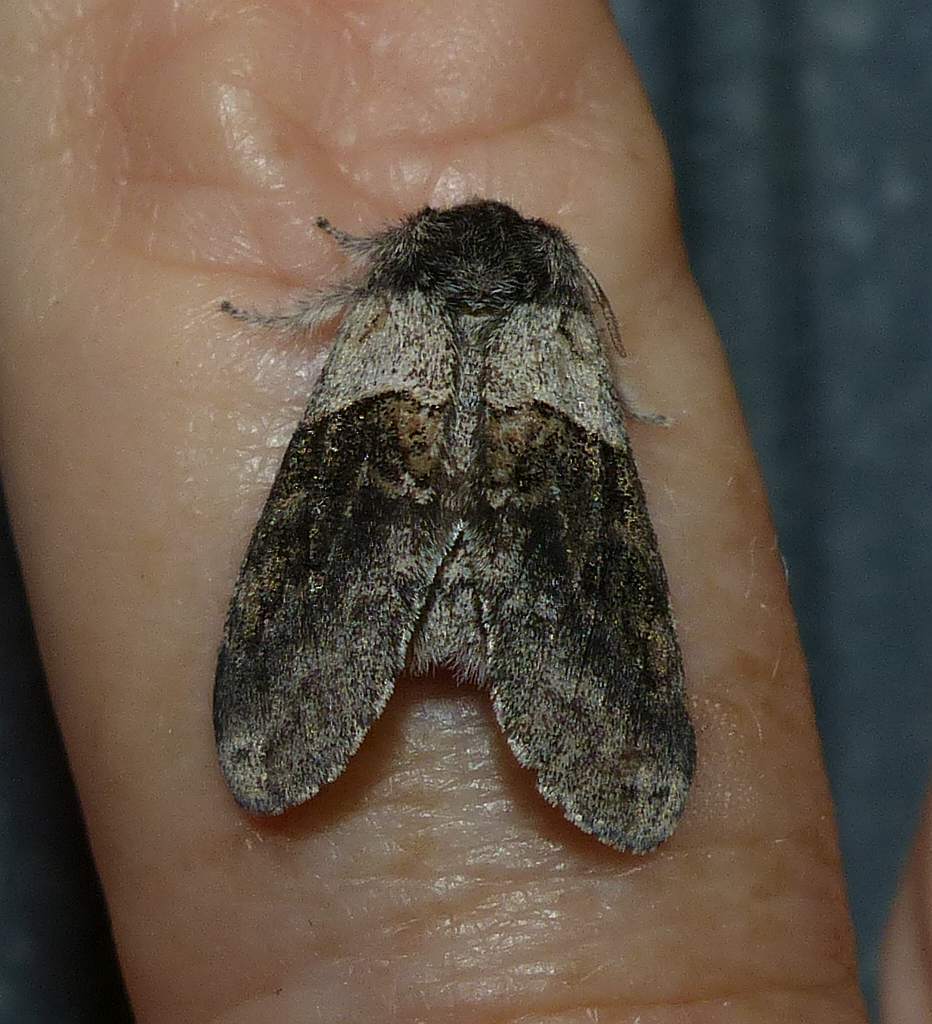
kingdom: Animalia
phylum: Arthropoda
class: Insecta
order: Lepidoptera
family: Notodontidae
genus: Gluphisia
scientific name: Gluphisia septentrionis
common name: Common gluphisia
